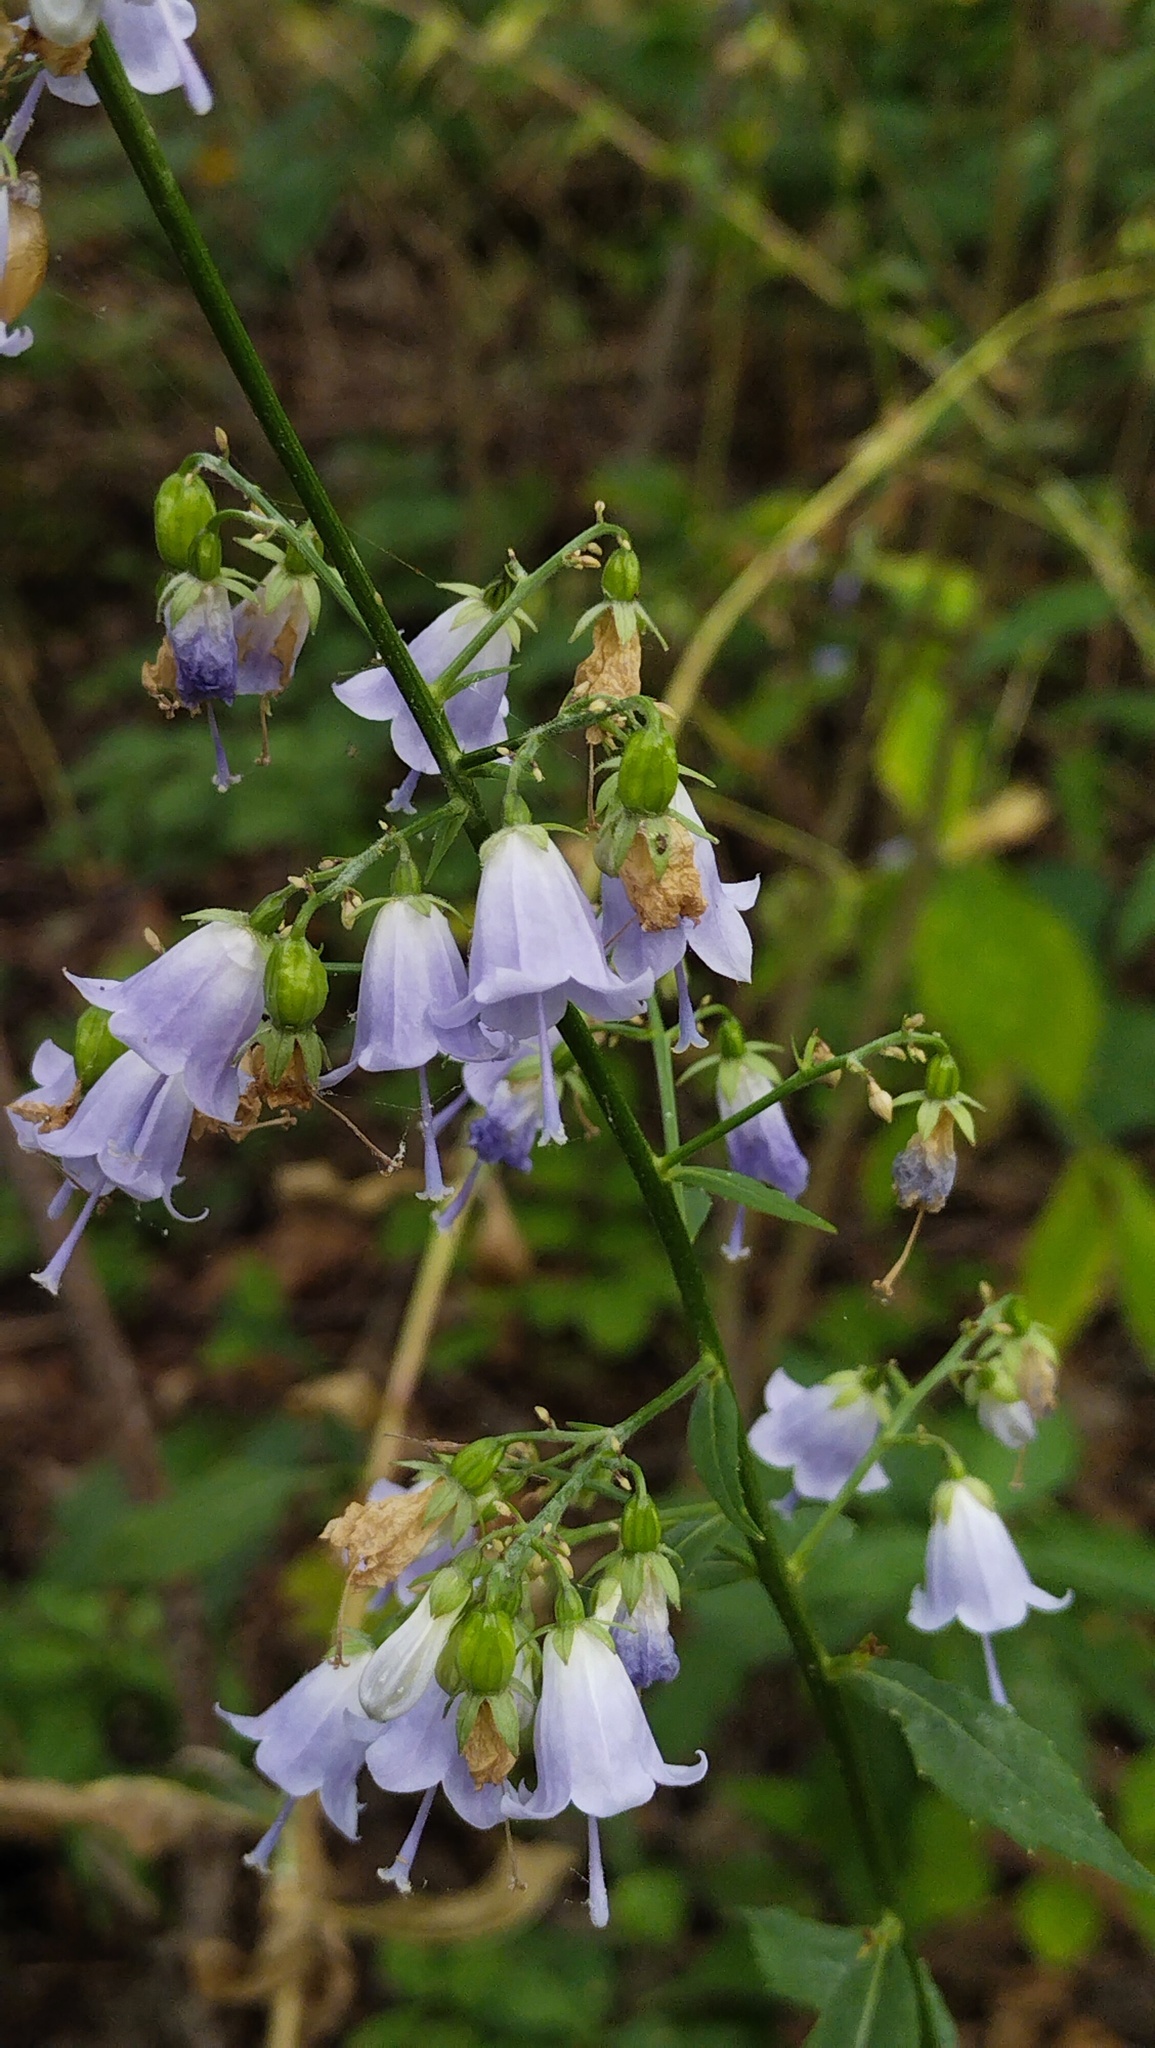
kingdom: Plantae
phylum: Tracheophyta
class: Magnoliopsida
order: Asterales
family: Campanulaceae
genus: Adenophora
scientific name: Adenophora pereskiifolia
